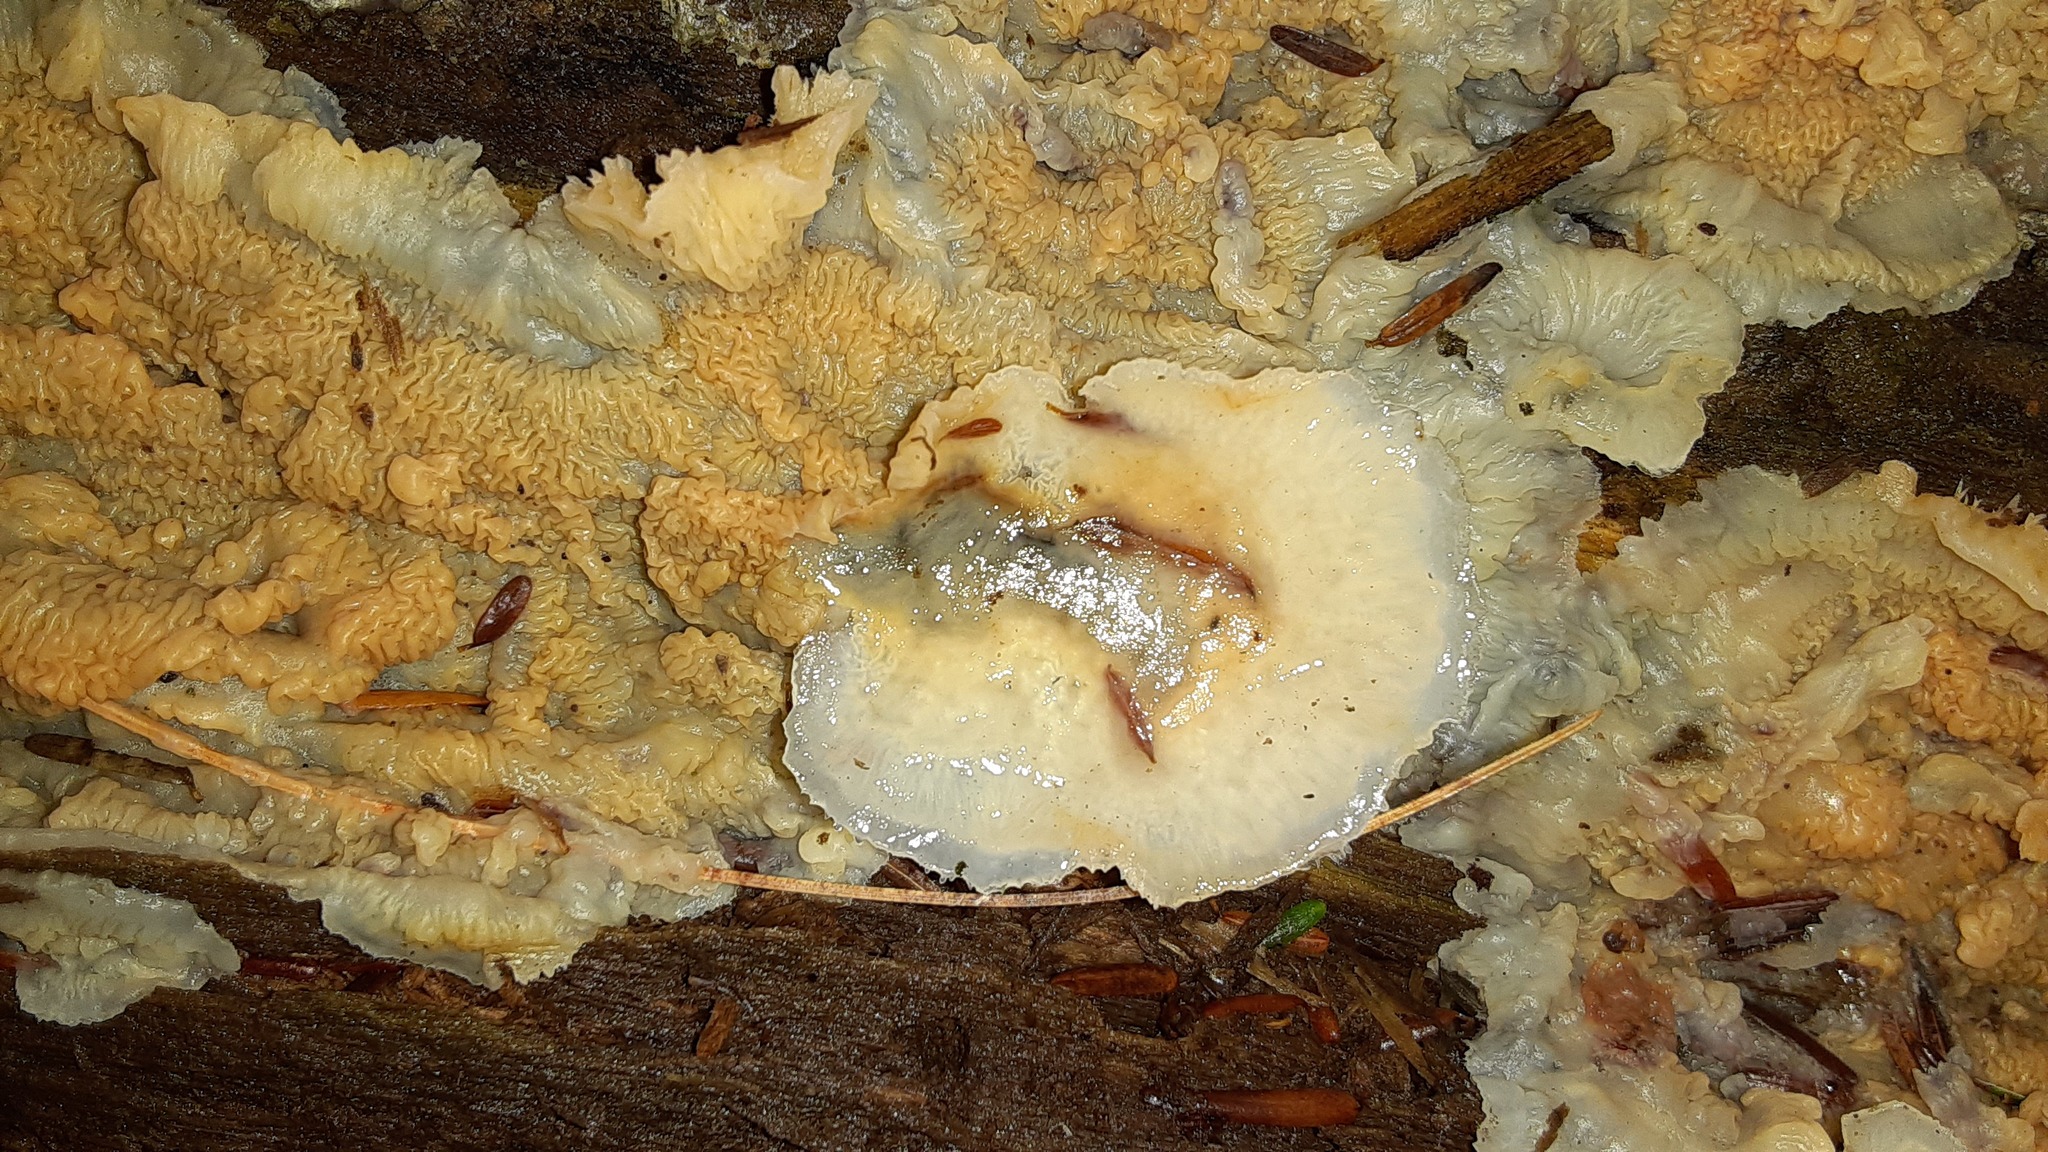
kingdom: Fungi
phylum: Basidiomycota
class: Agaricomycetes
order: Polyporales
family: Meruliaceae
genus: Phlebia
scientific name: Phlebia tremellosa
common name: Jelly rot
